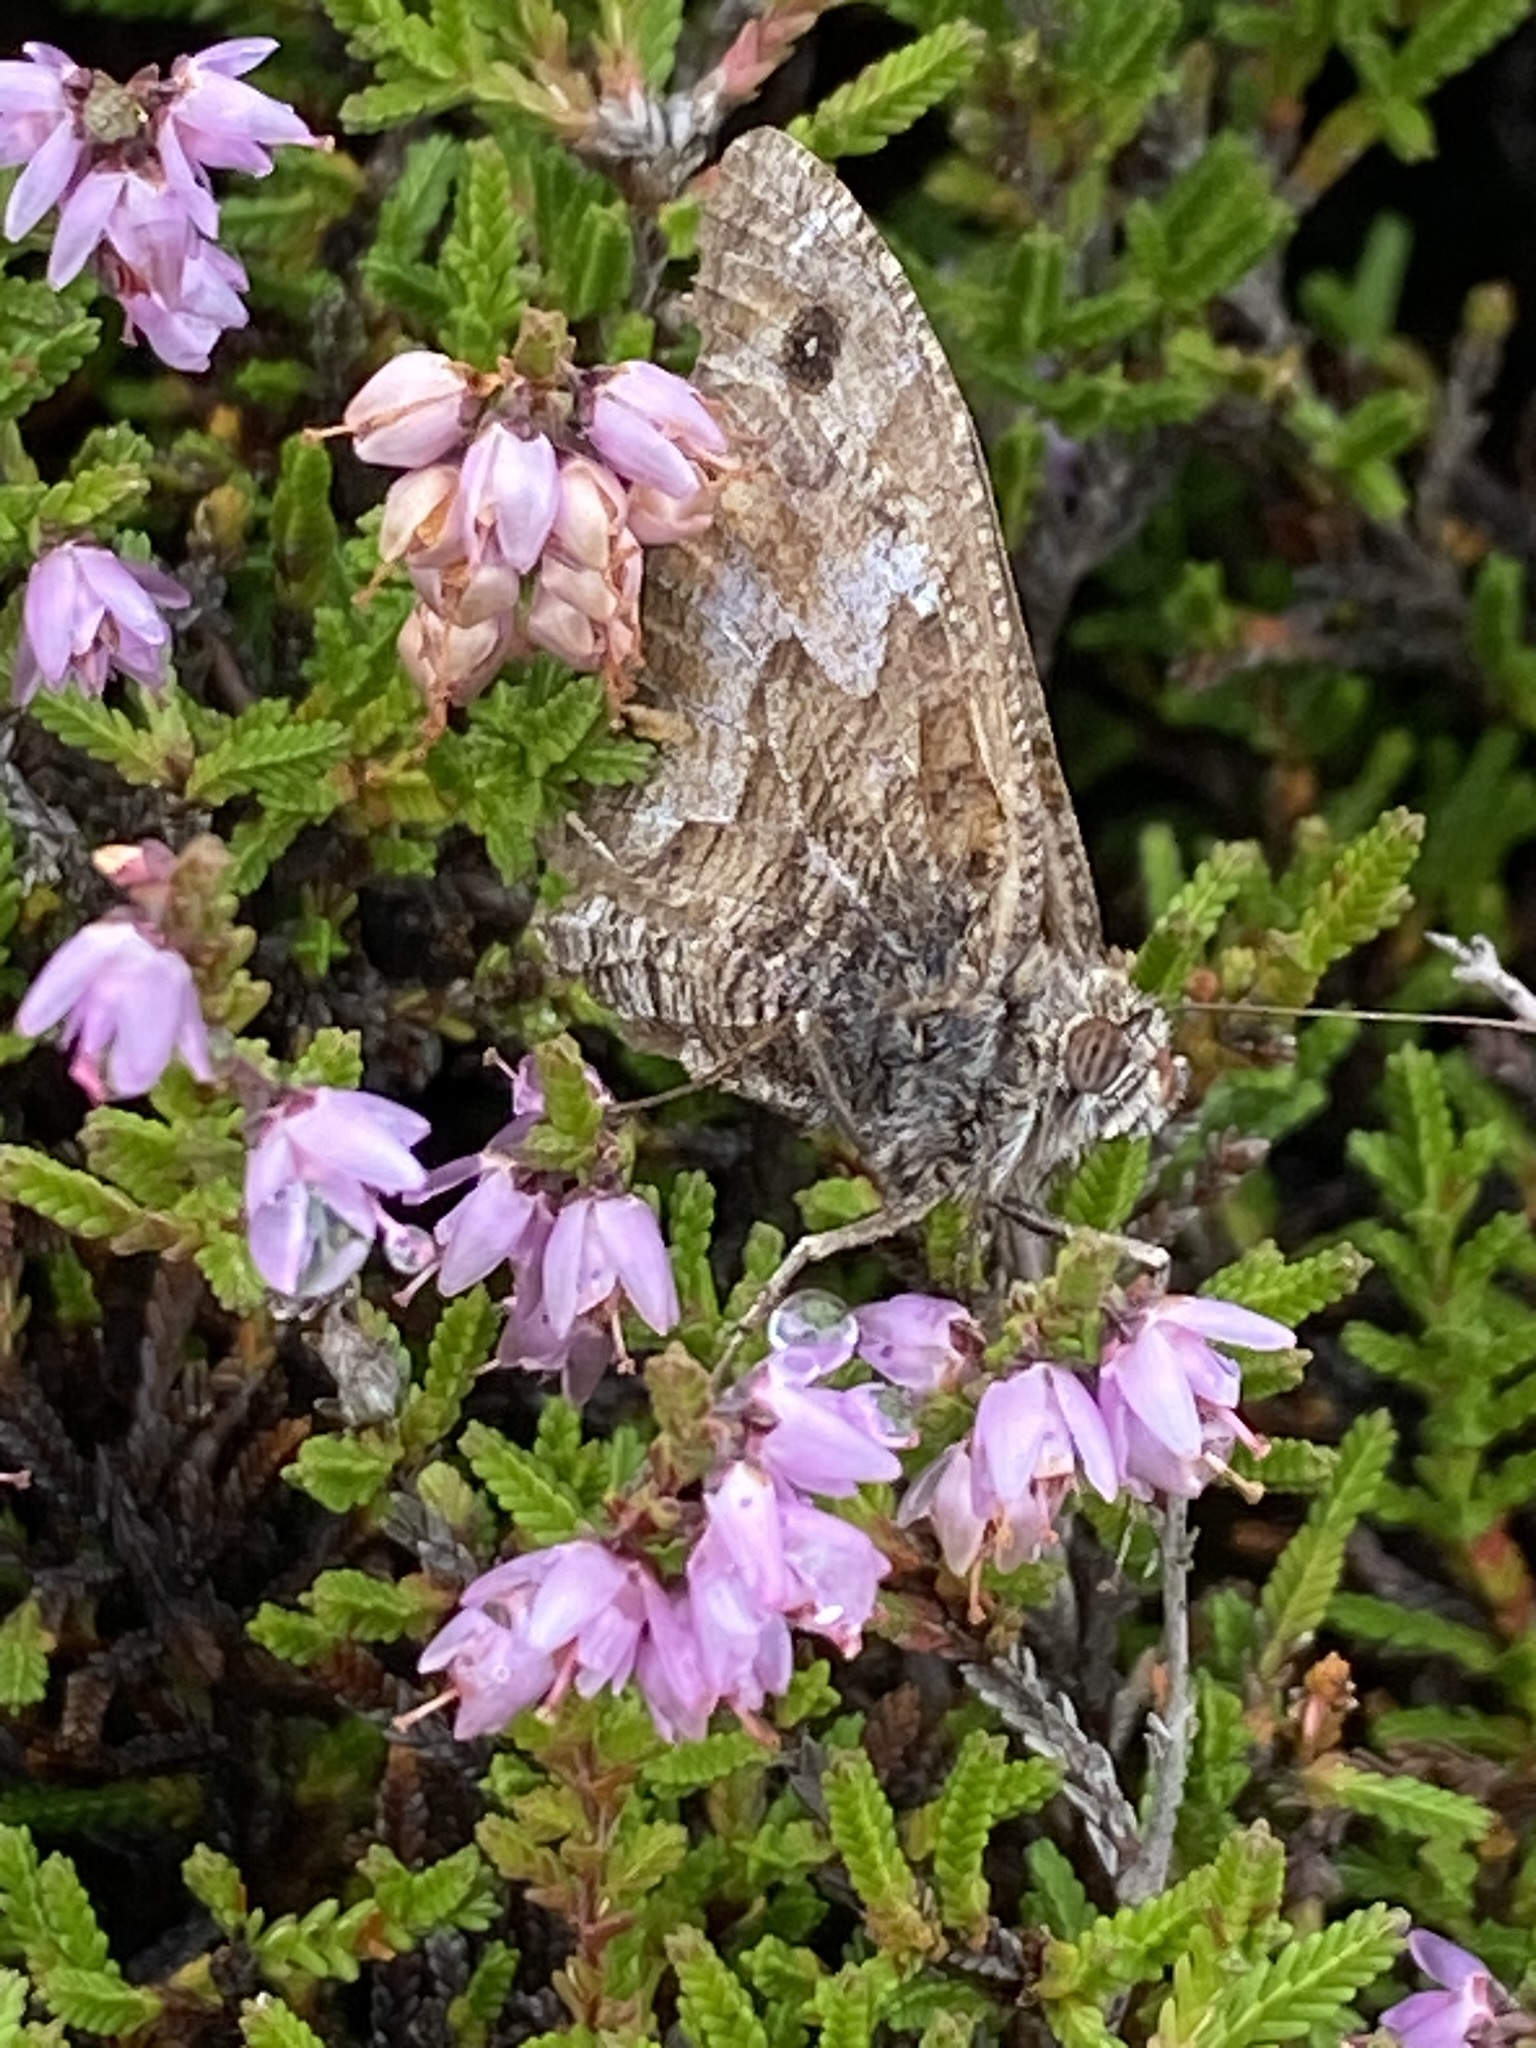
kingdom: Animalia
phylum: Arthropoda
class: Insecta
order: Lepidoptera
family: Nymphalidae
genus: Hipparchia
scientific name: Hipparchia semele
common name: Grayling
